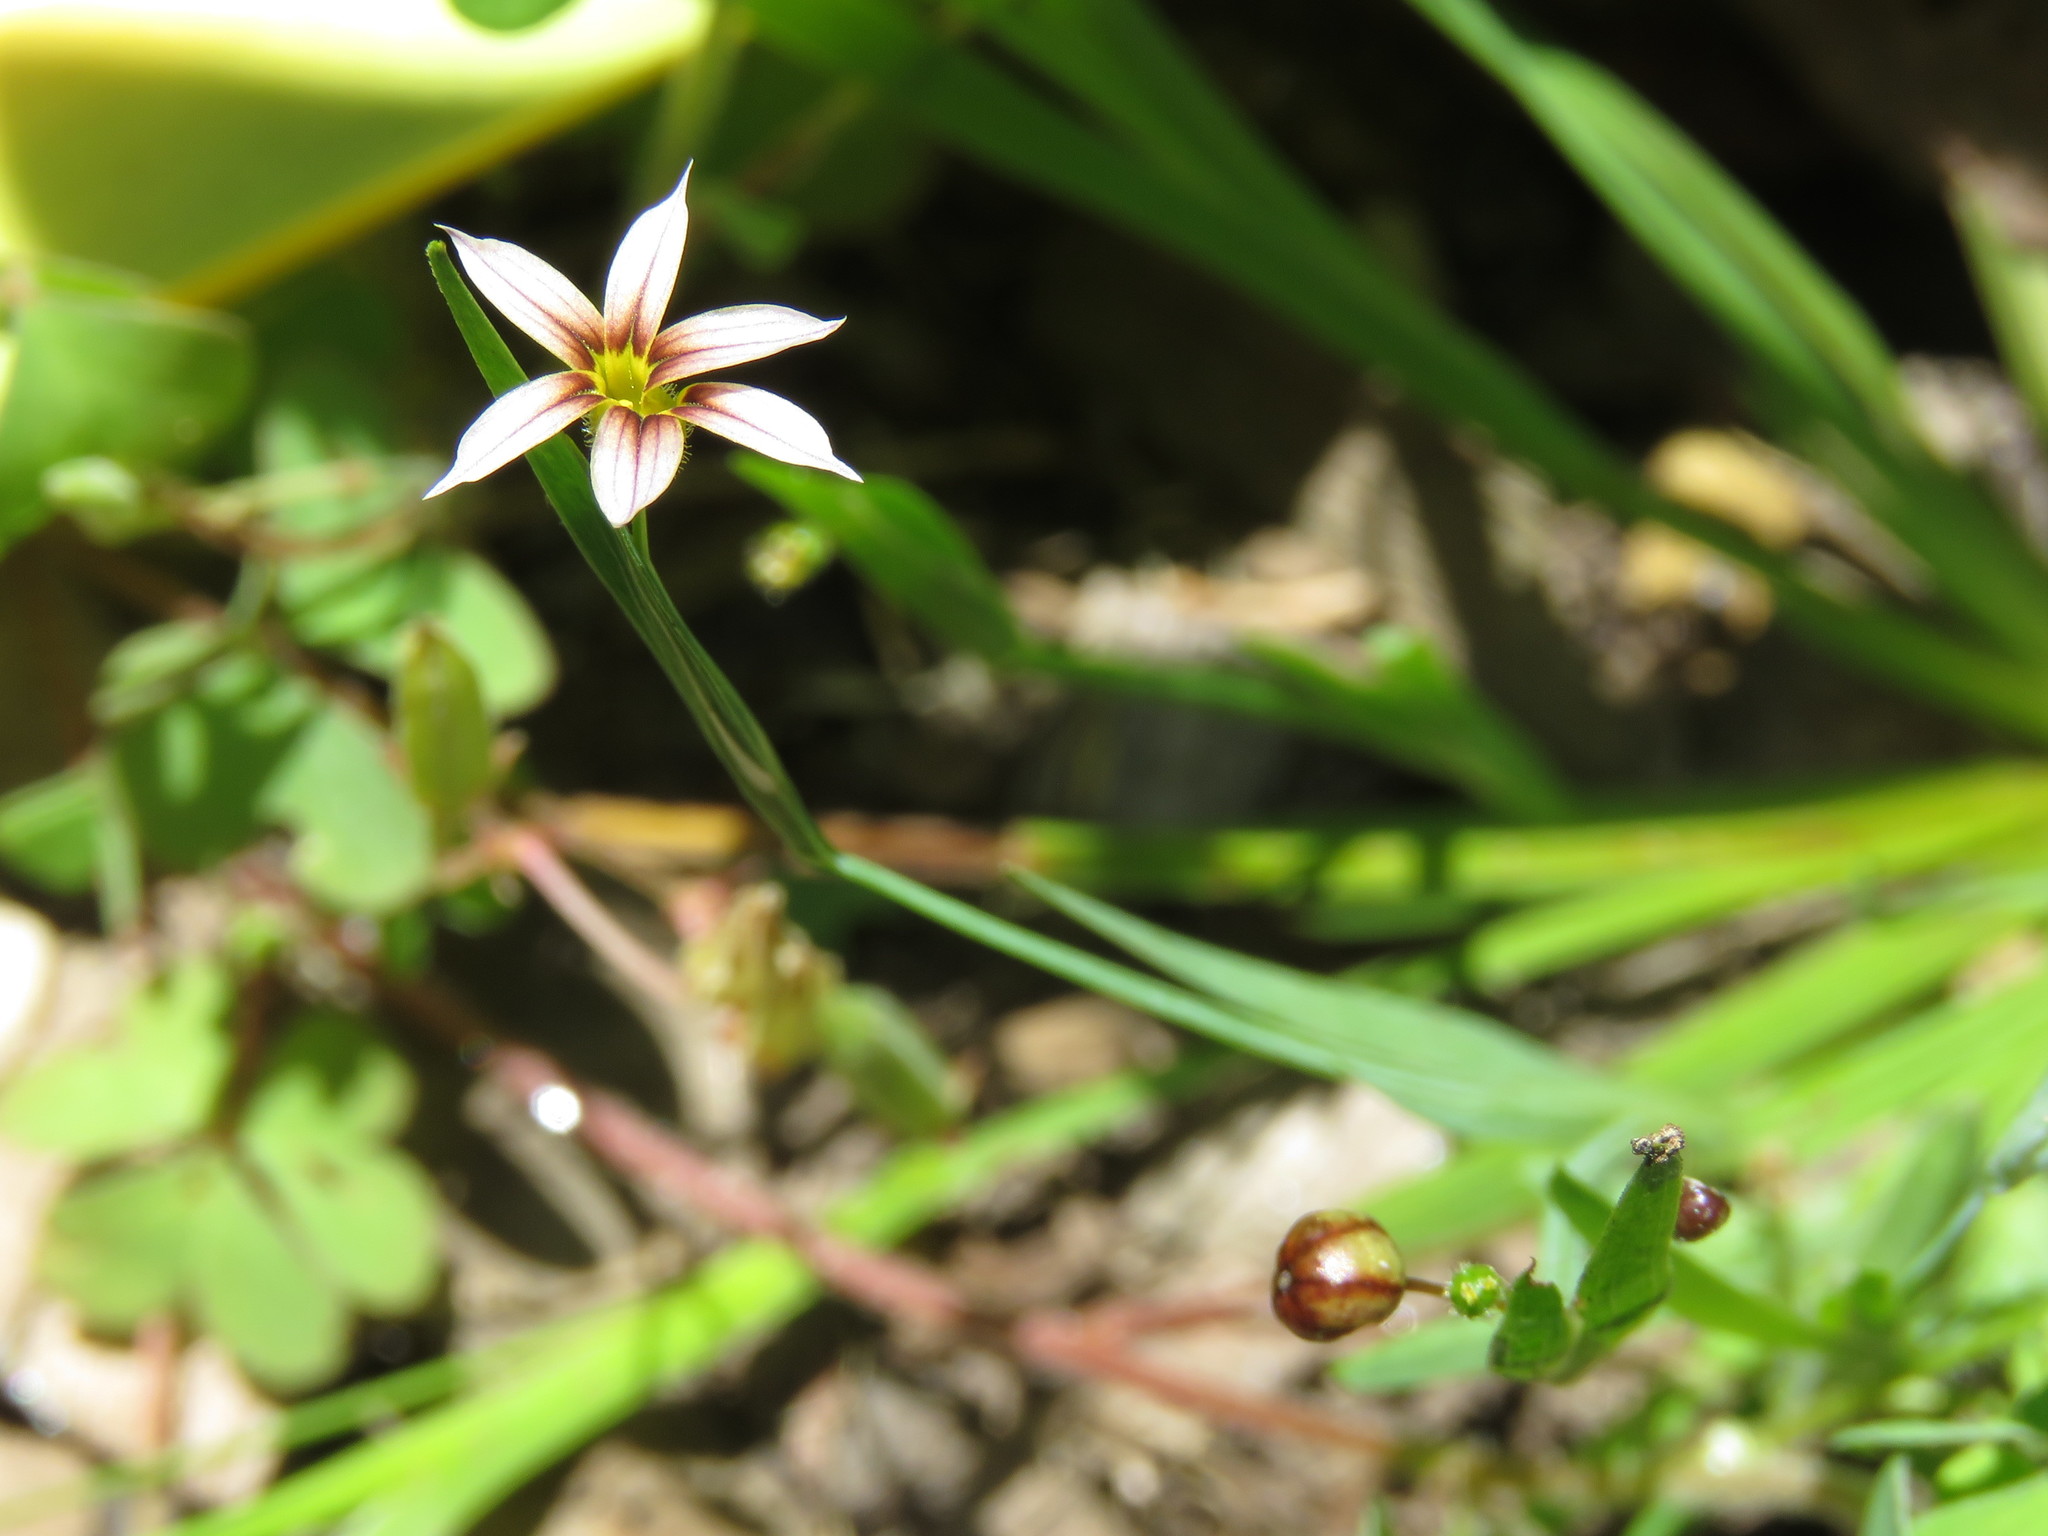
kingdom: Plantae
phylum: Tracheophyta
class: Liliopsida
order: Asparagales
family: Iridaceae
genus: Sisyrinchium
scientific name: Sisyrinchium micranthum
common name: Bermuda pigroot
